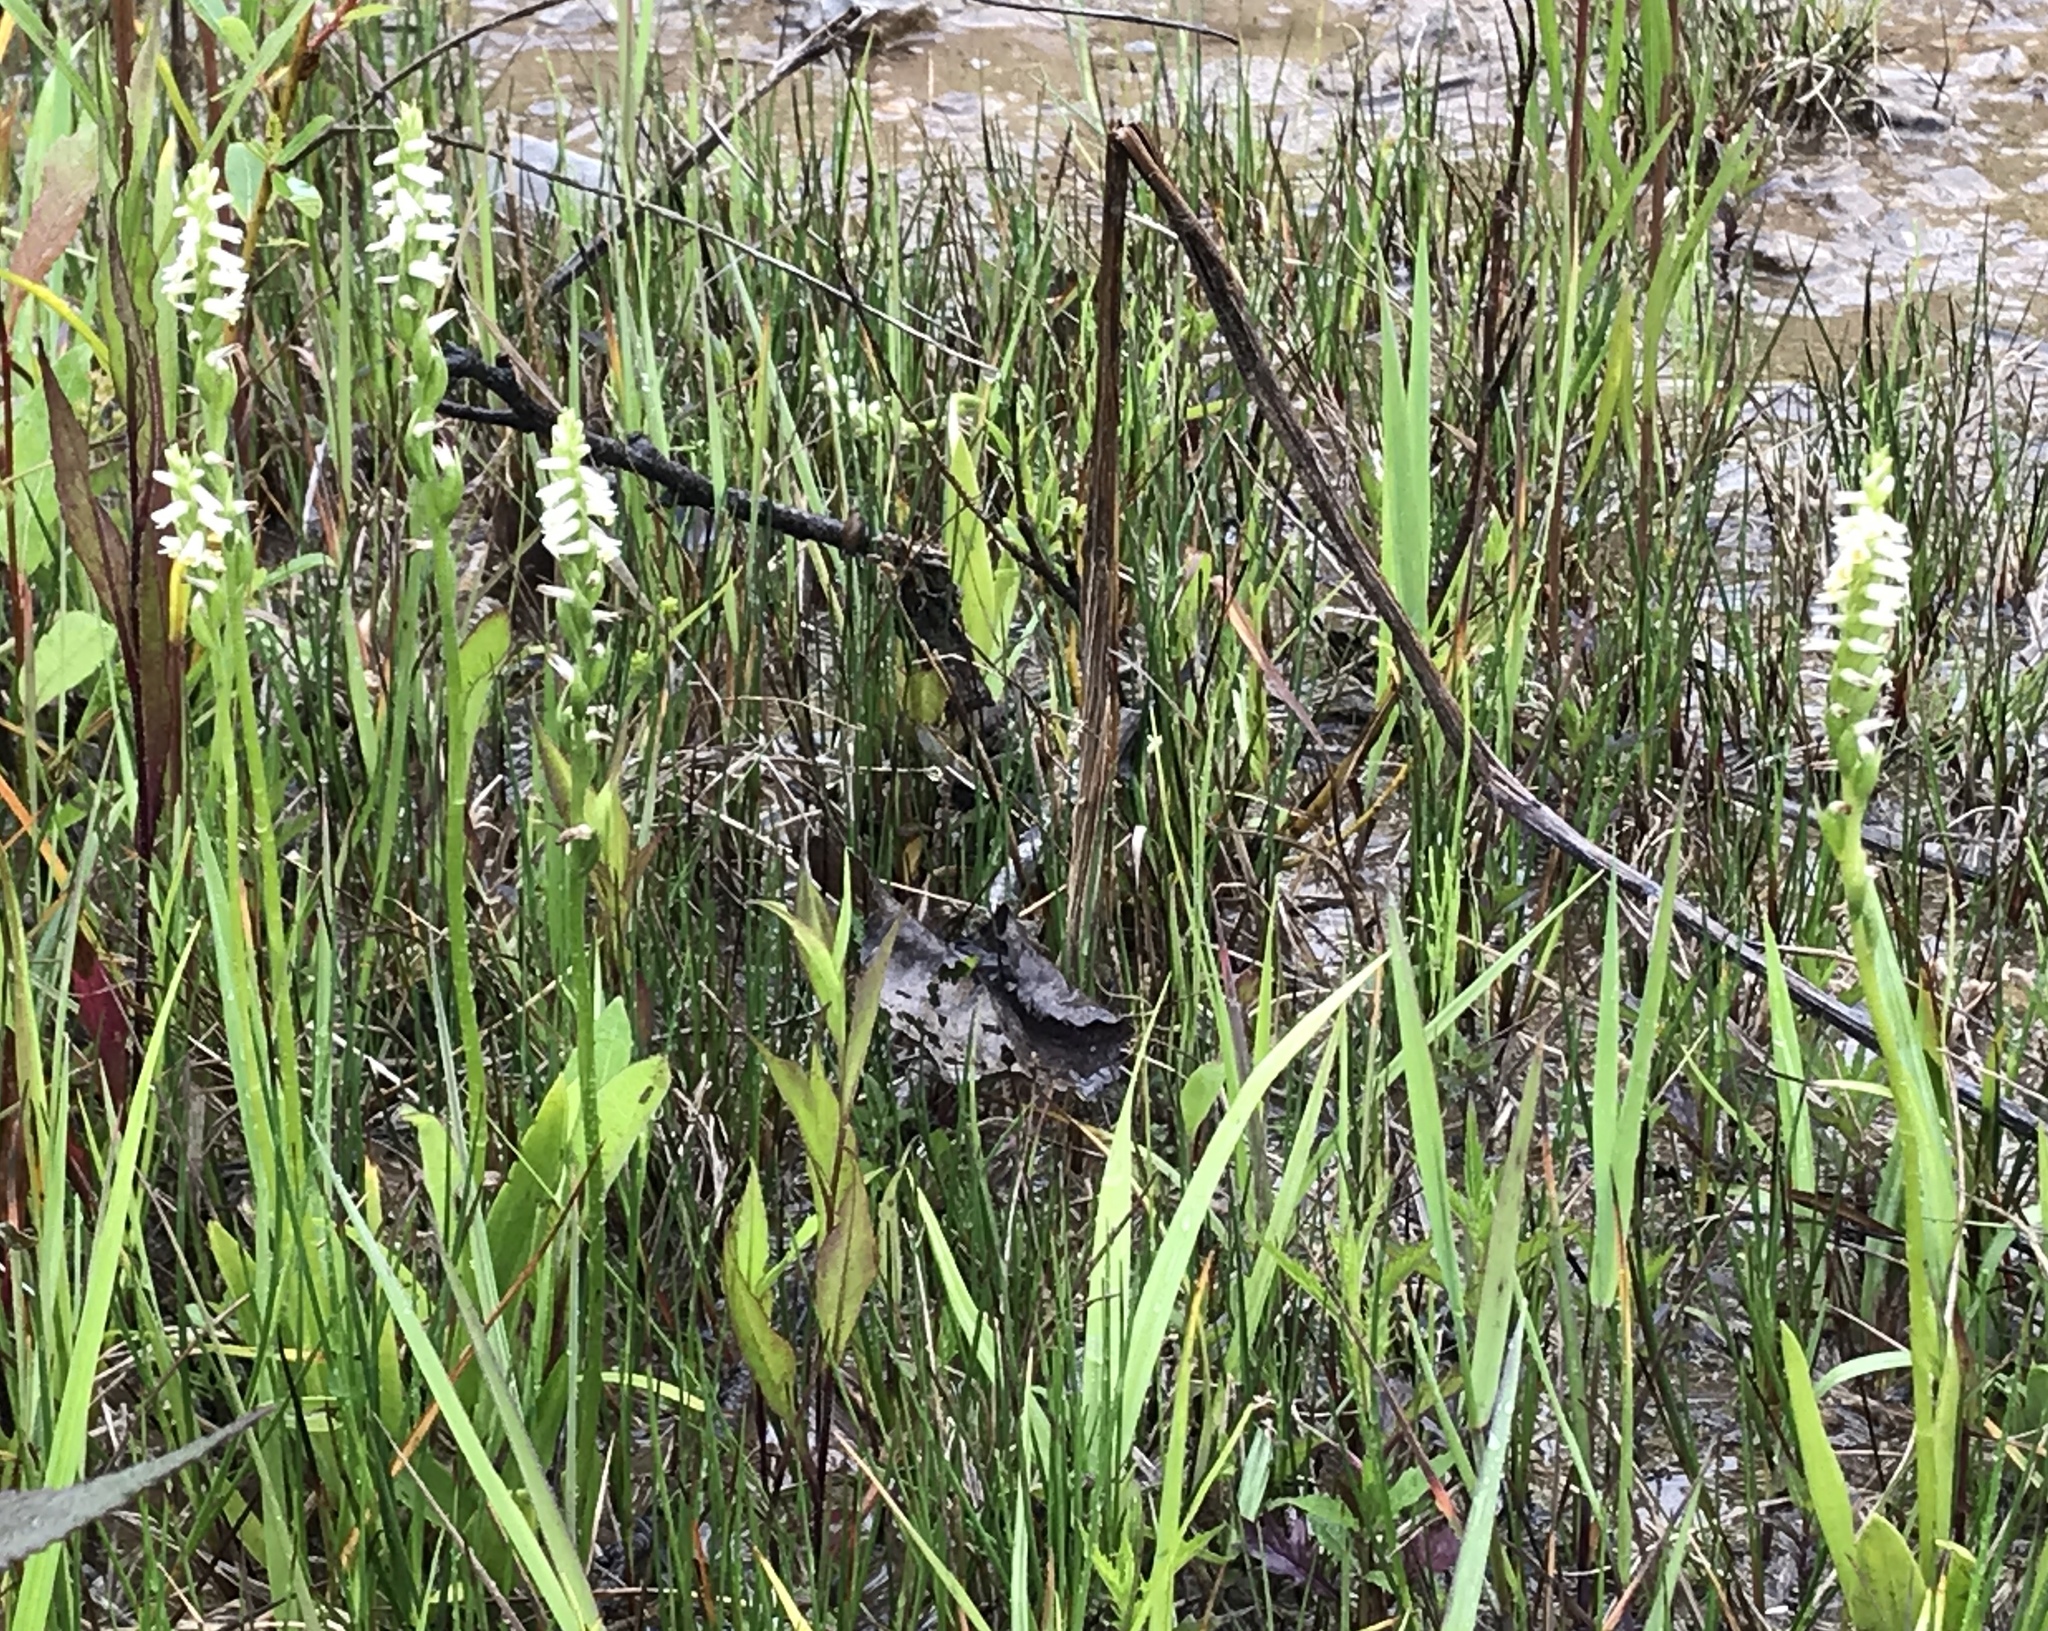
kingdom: Plantae
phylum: Tracheophyta
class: Liliopsida
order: Asparagales
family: Orchidaceae
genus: Spiranthes
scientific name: Spiranthes lucida
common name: Broad-leaved ladies'-tresses
